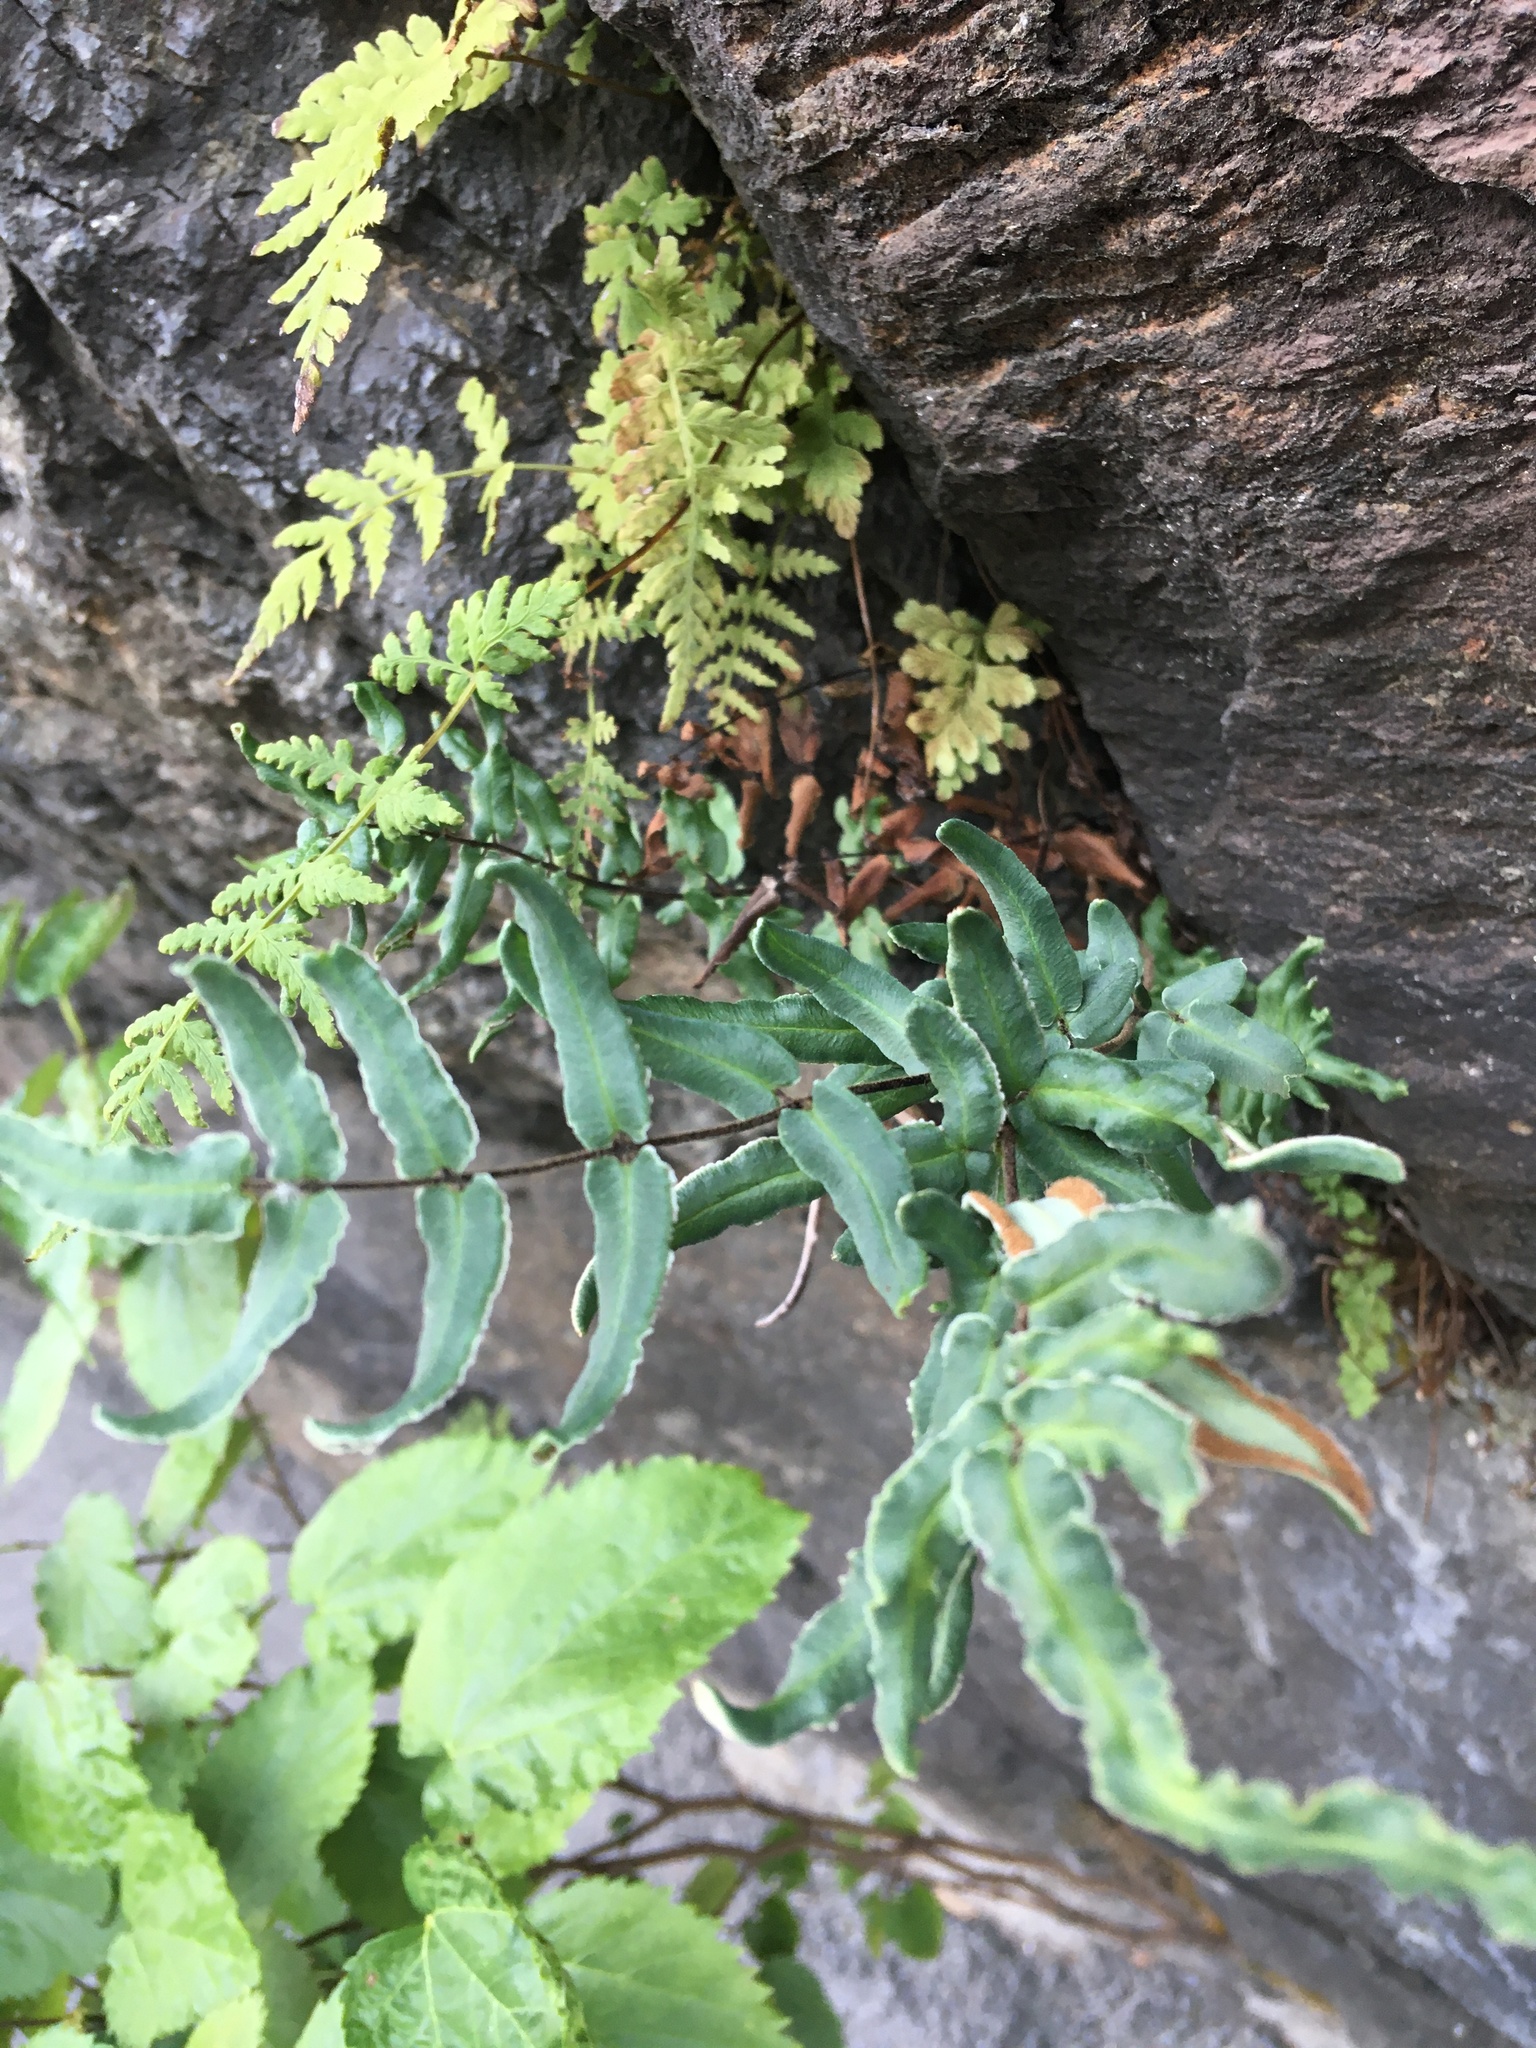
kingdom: Plantae
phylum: Tracheophyta
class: Polypodiopsida
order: Polypodiales
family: Pteridaceae
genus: Pellaea
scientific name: Pellaea atropurpurea
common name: Hairy cliffbrake
